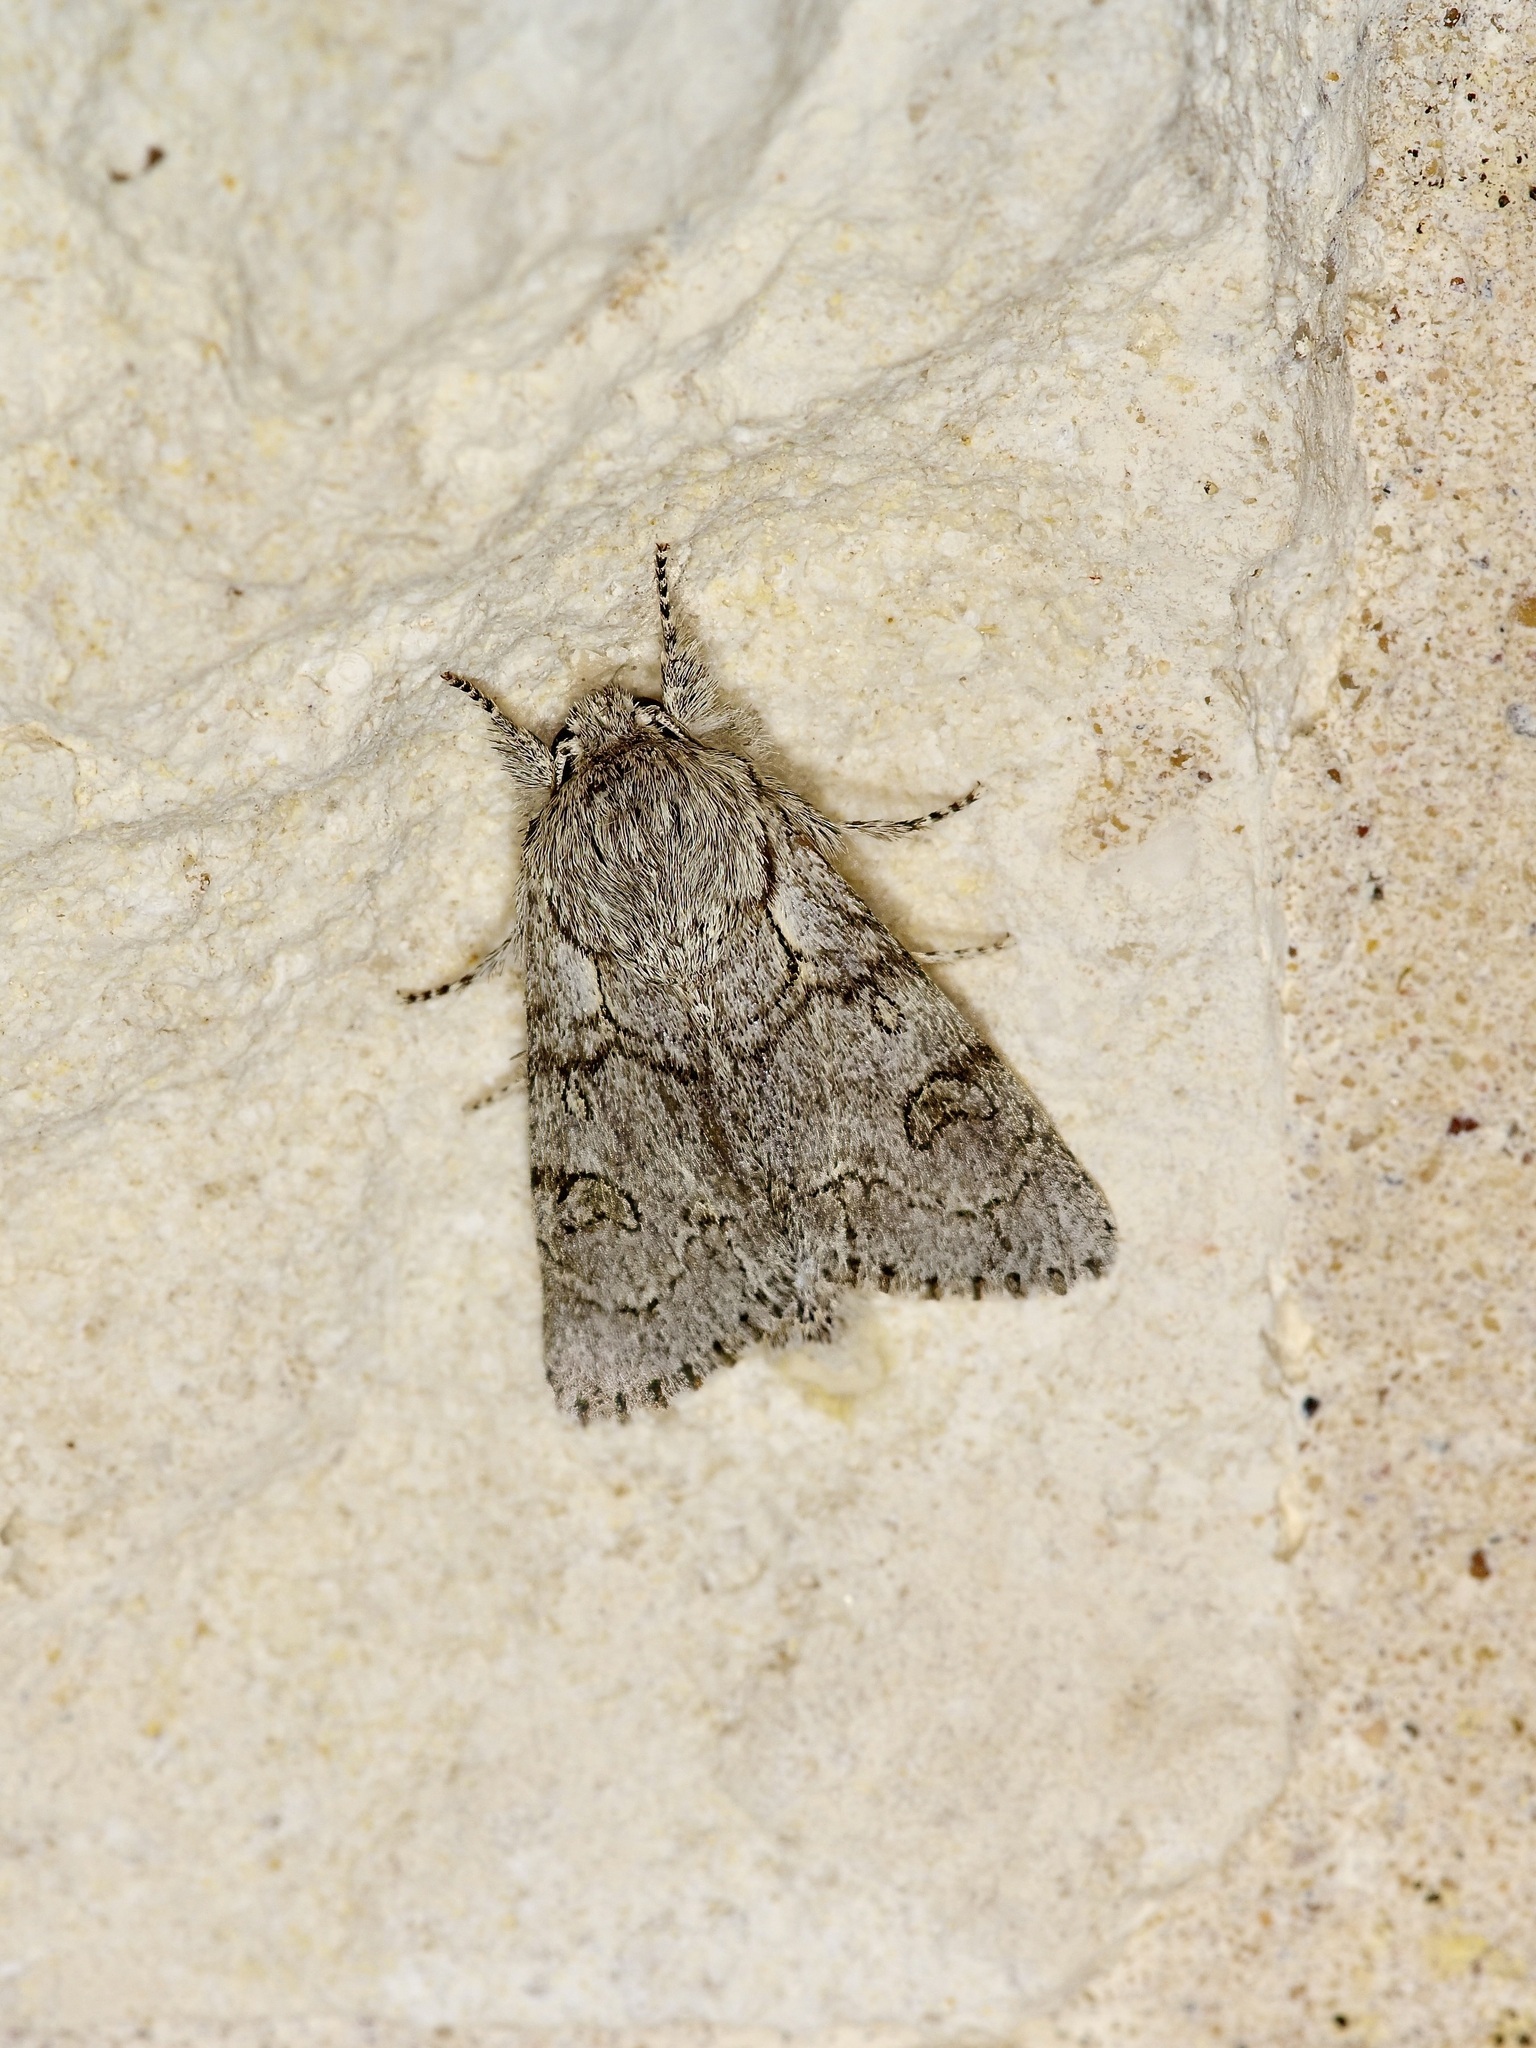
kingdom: Animalia
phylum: Arthropoda
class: Insecta
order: Lepidoptera
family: Noctuidae
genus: Acronicta
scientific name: Acronicta tota
